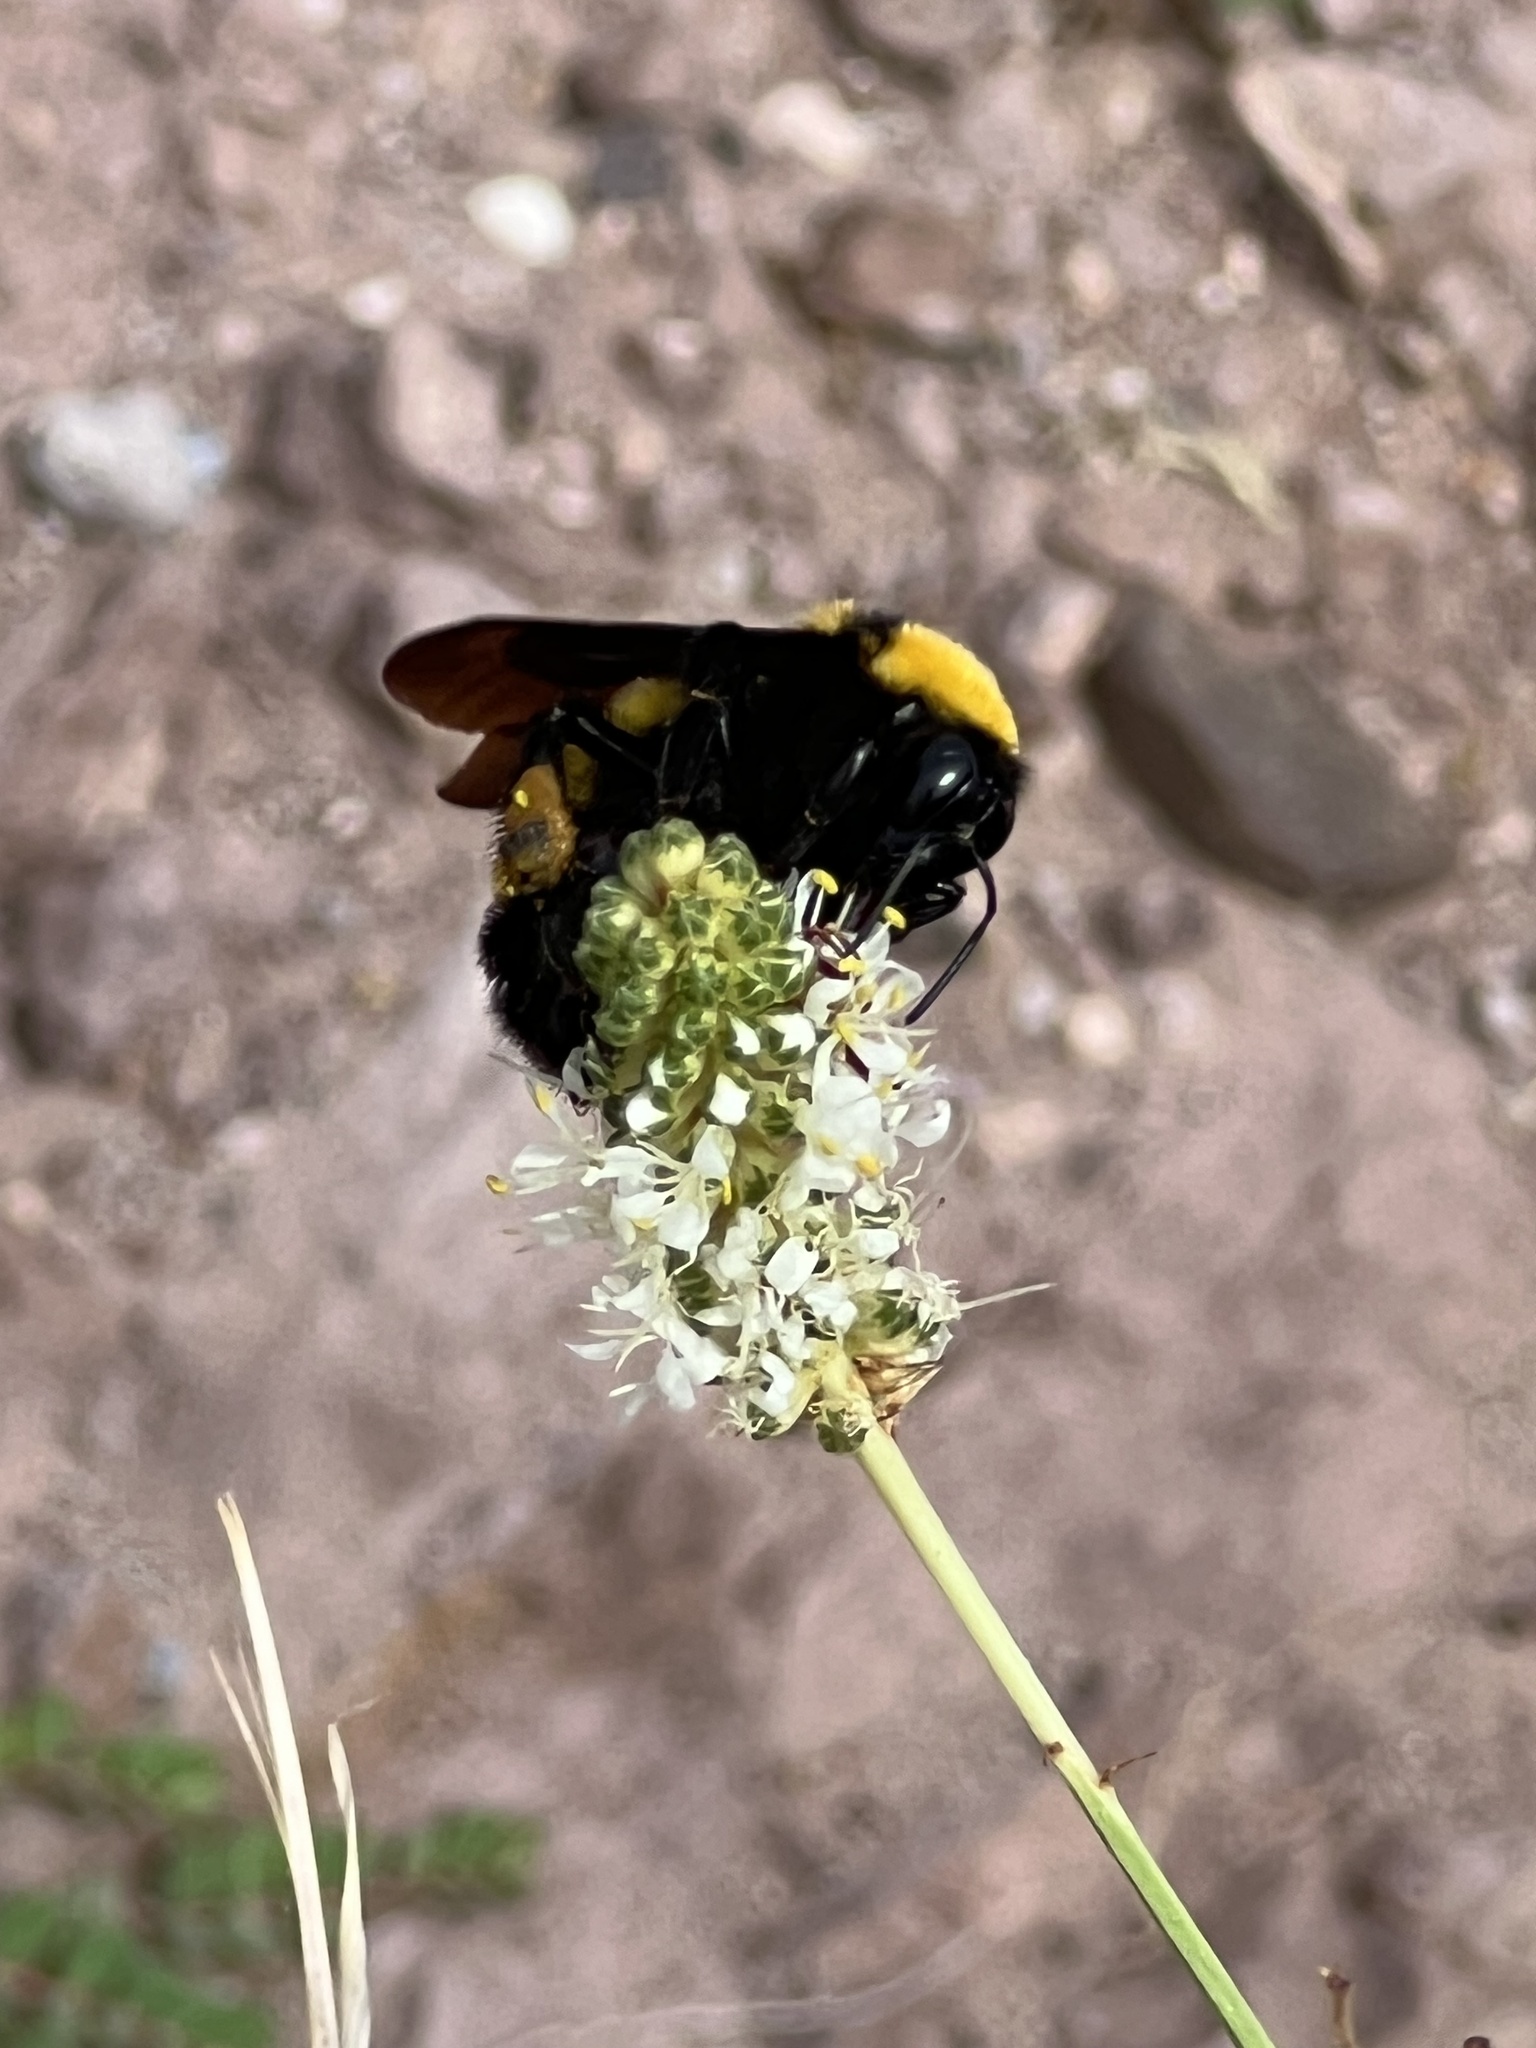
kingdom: Animalia
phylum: Arthropoda
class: Insecta
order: Hymenoptera
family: Apidae
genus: Bombus
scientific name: Bombus sonorus
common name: Sonoran bumble bee
